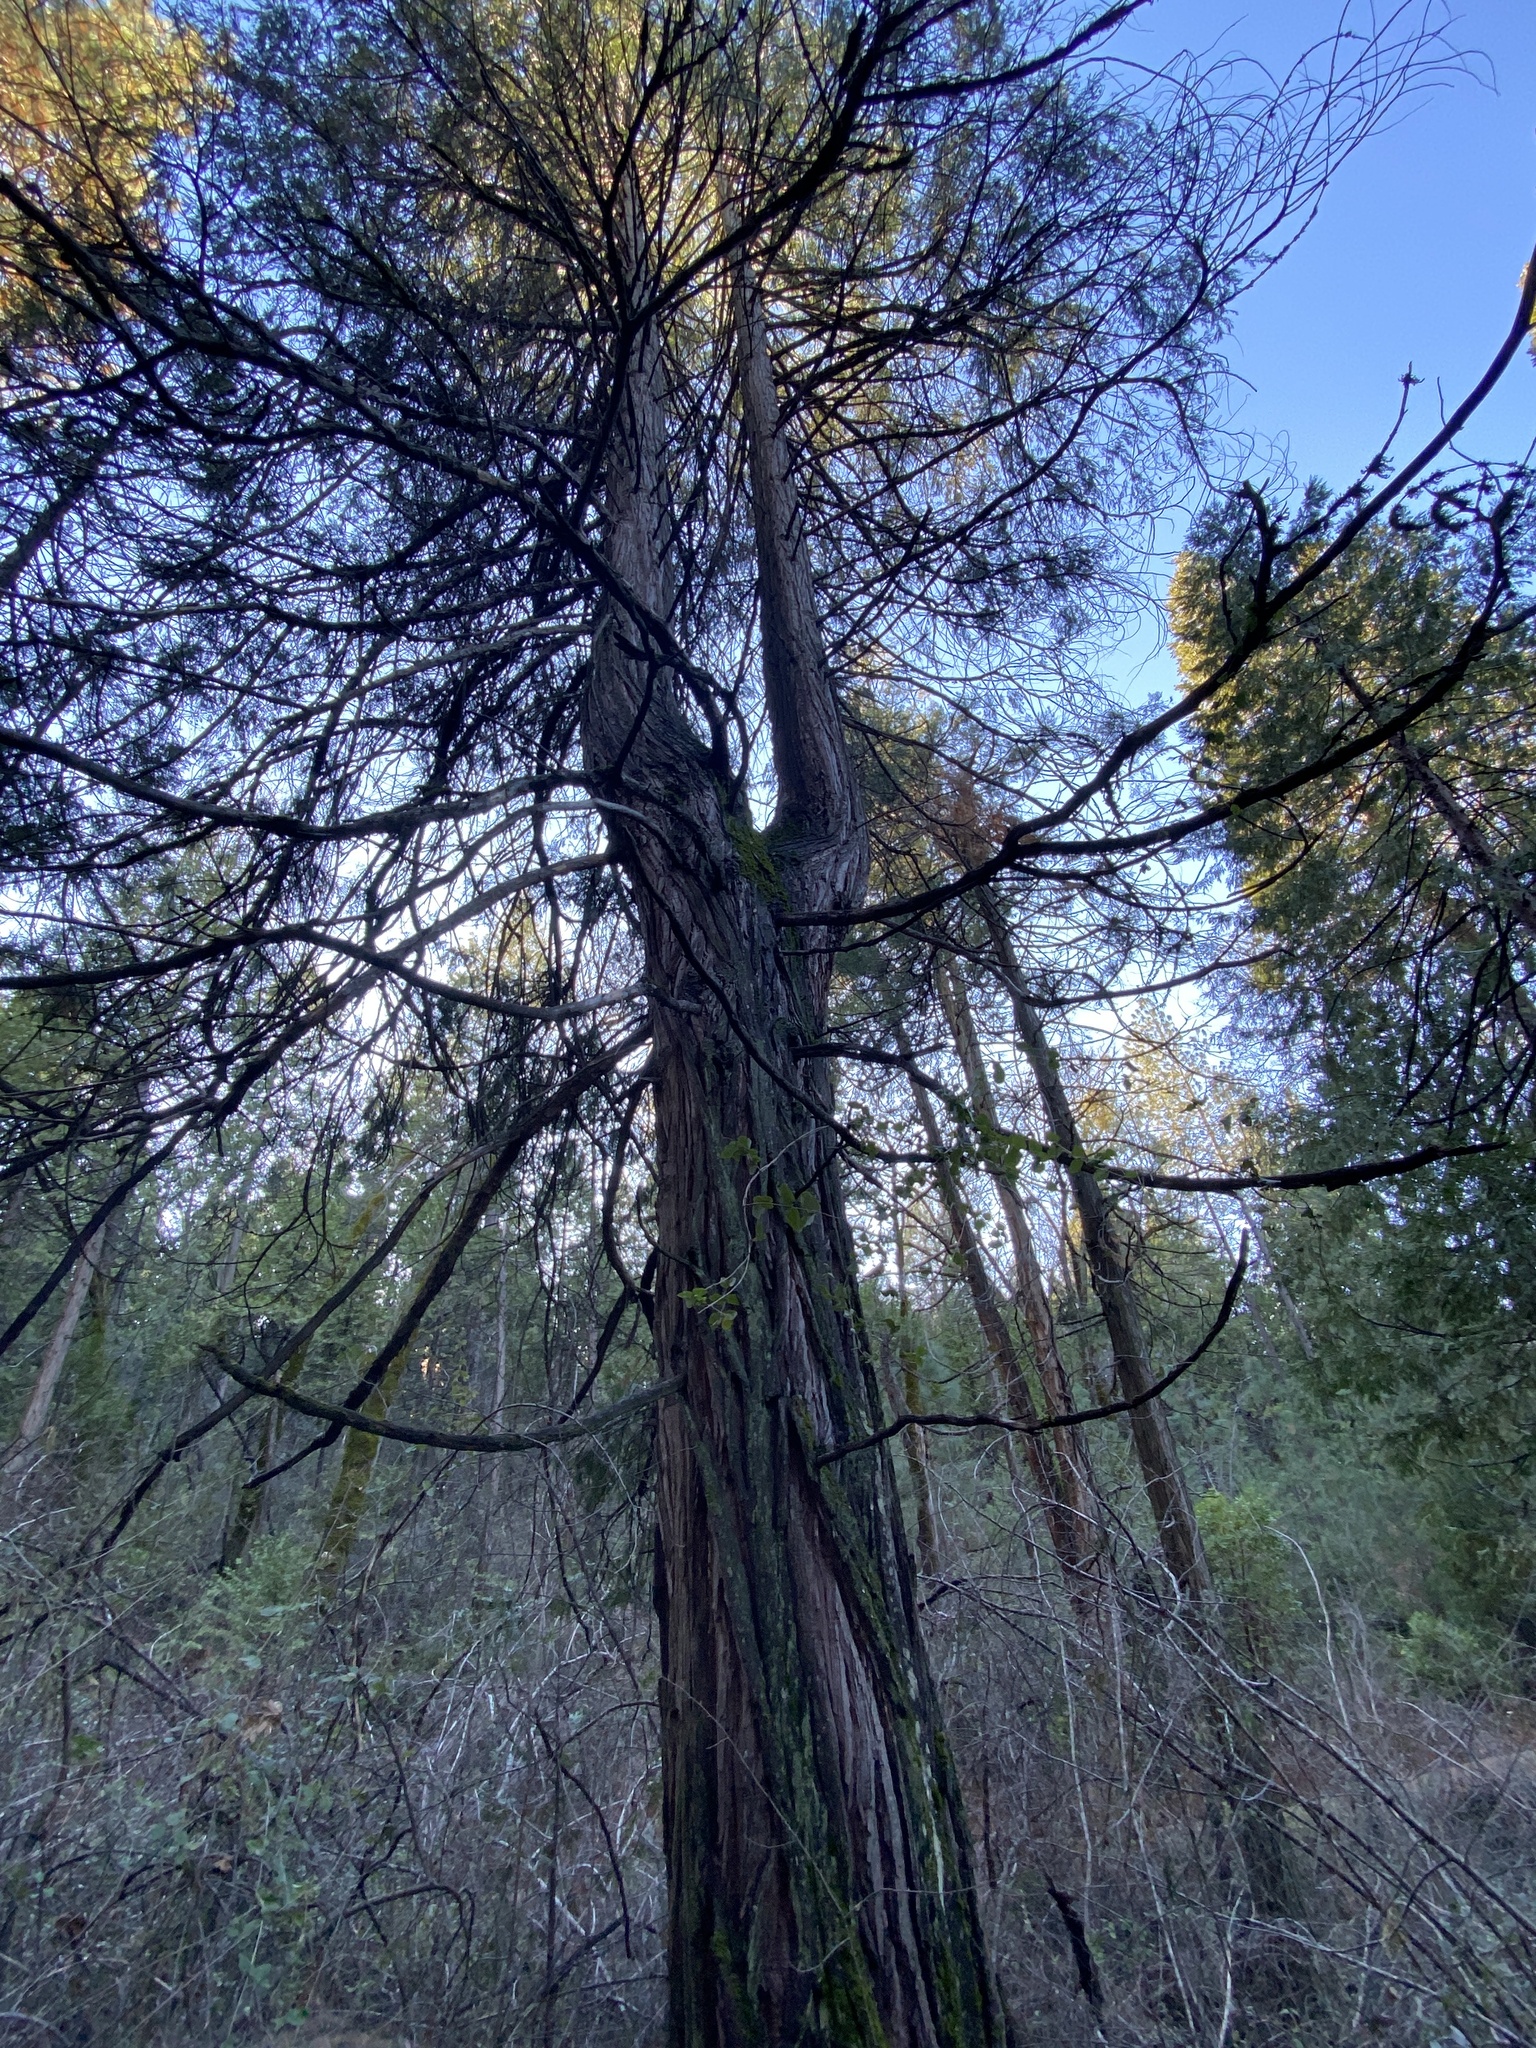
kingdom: Plantae
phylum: Tracheophyta
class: Pinopsida
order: Pinales
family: Cupressaceae
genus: Calocedrus
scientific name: Calocedrus decurrens
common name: Californian incense-cedar
